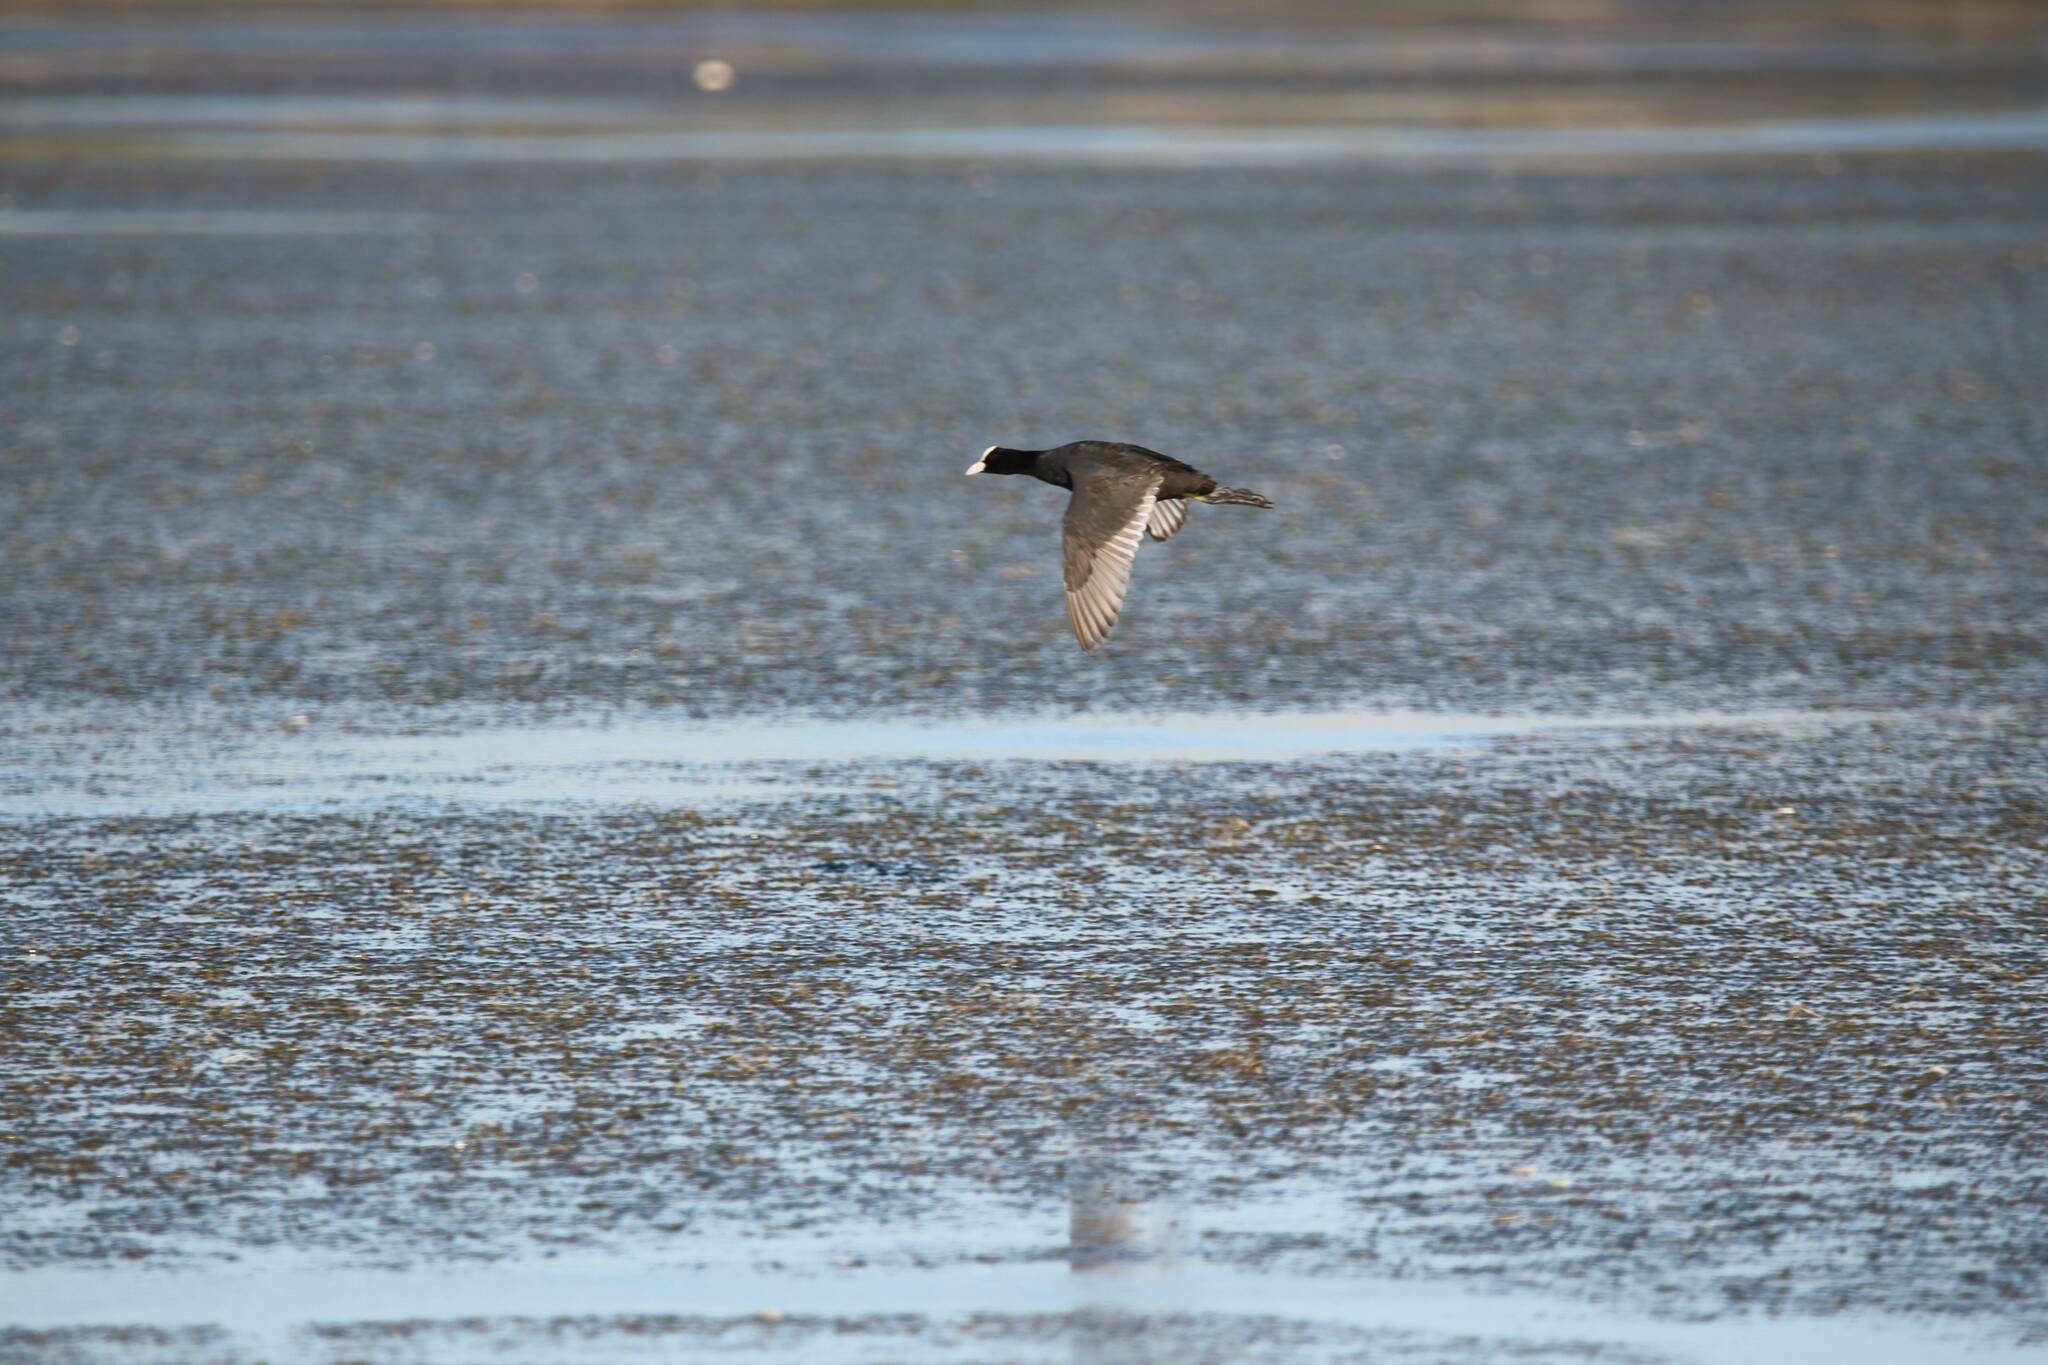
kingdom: Animalia
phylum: Chordata
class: Aves
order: Gruiformes
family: Rallidae
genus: Fulica
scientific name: Fulica atra
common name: Eurasian coot
